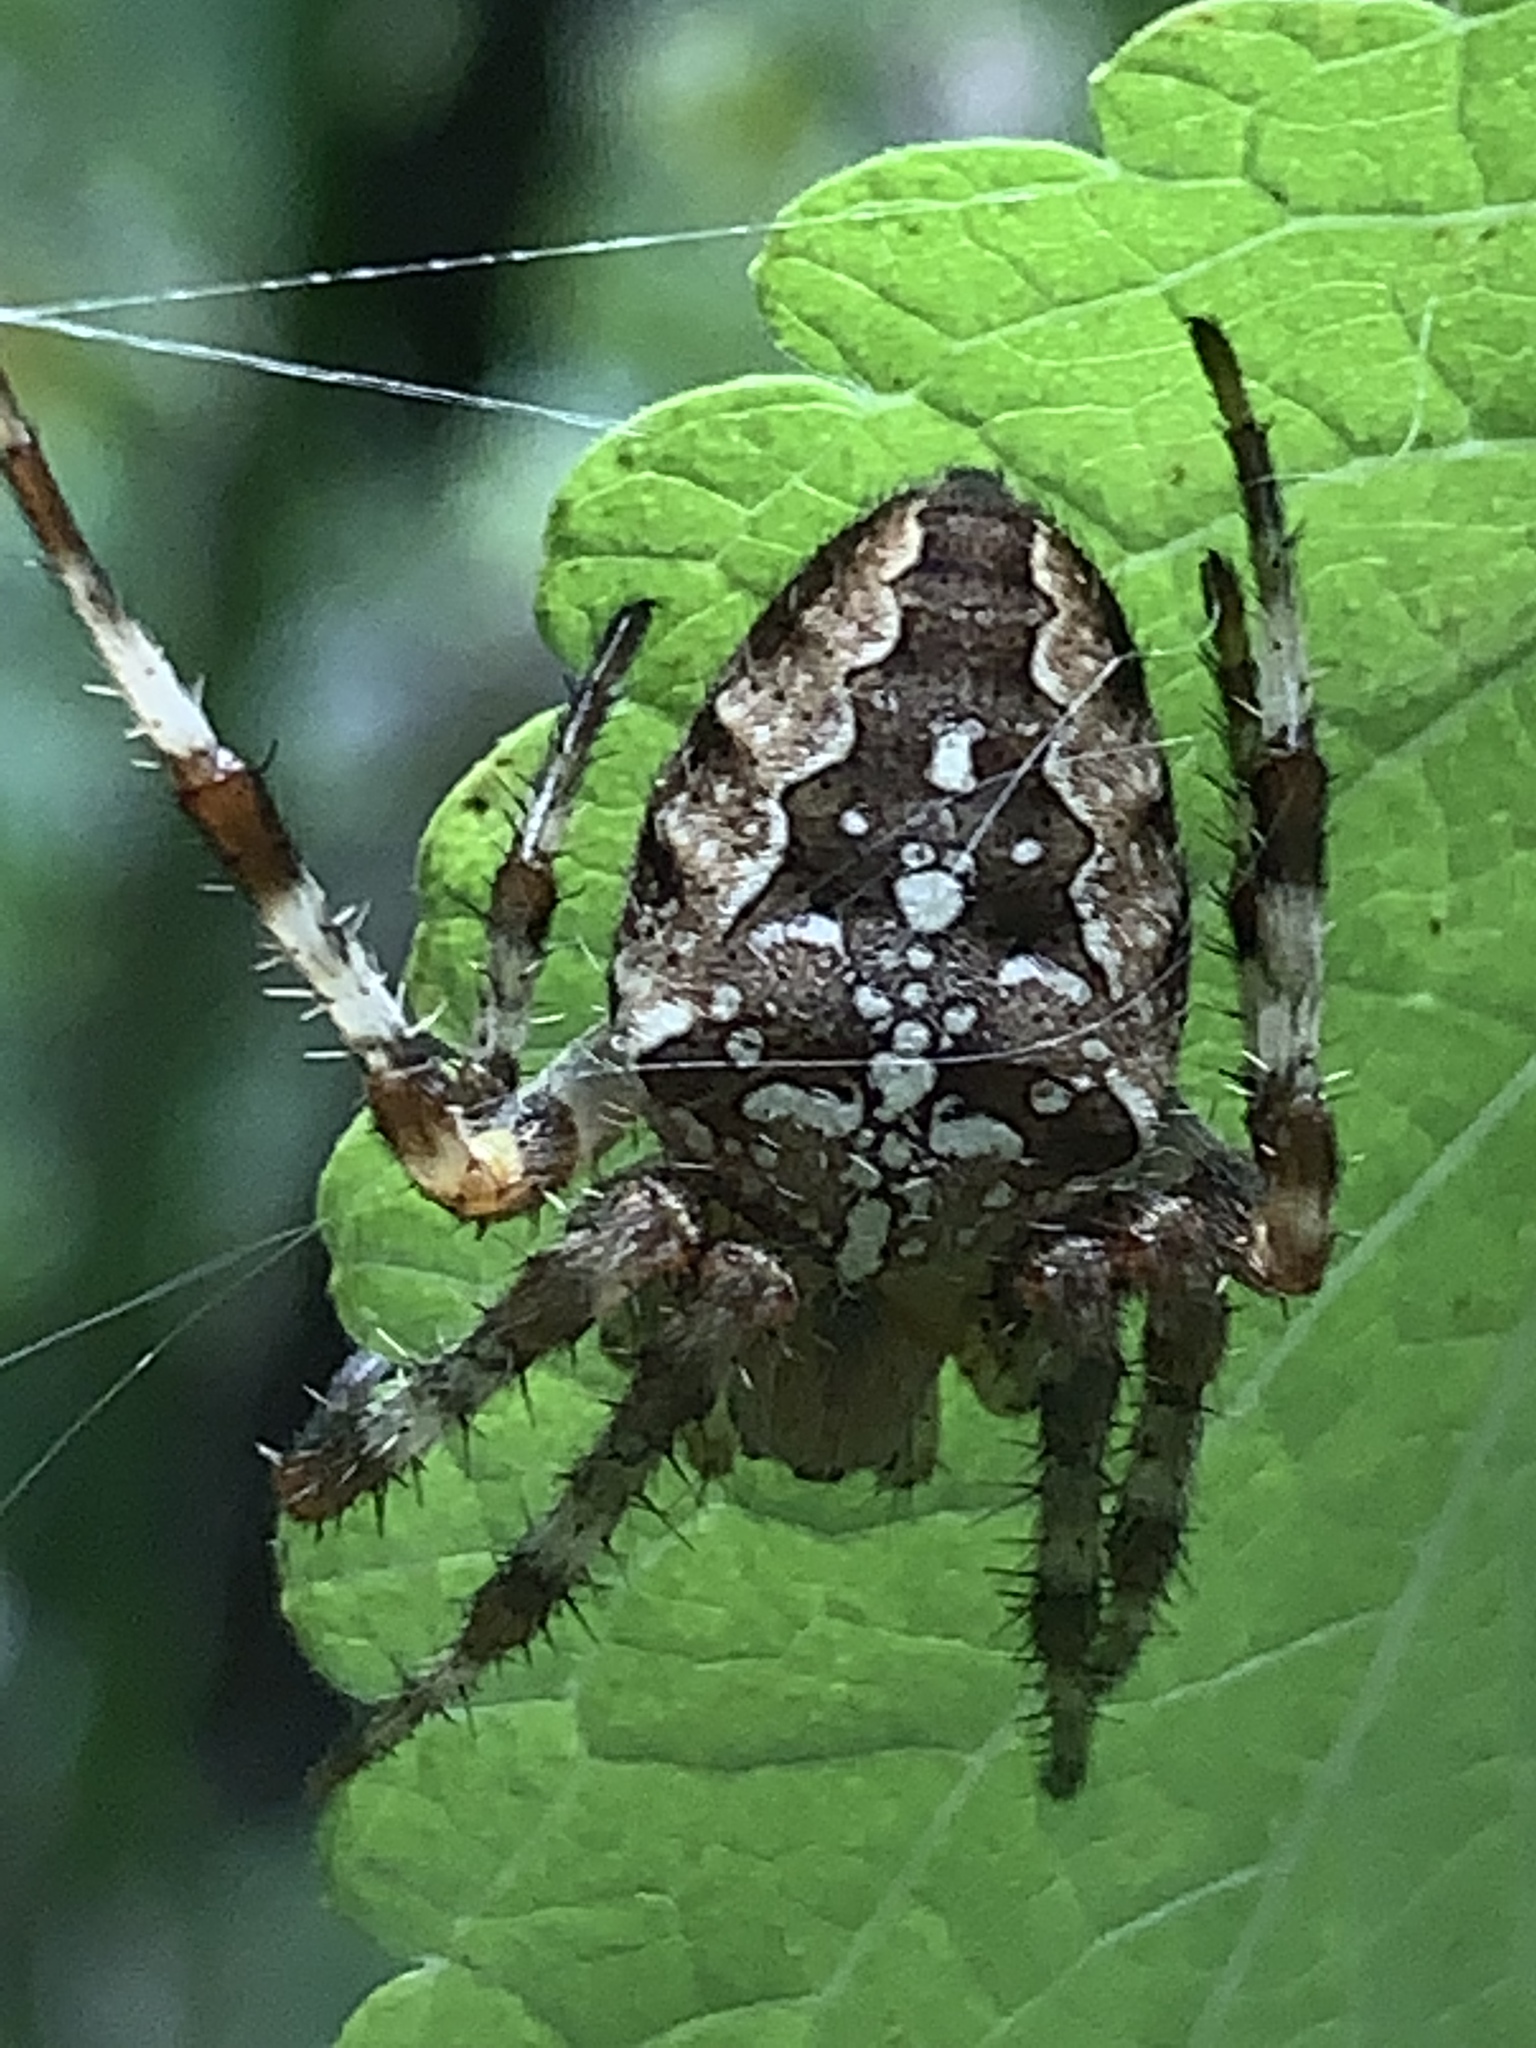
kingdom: Animalia
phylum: Arthropoda
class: Arachnida
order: Araneae
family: Araneidae
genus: Araneus
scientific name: Araneus diadematus
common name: Cross orbweaver
